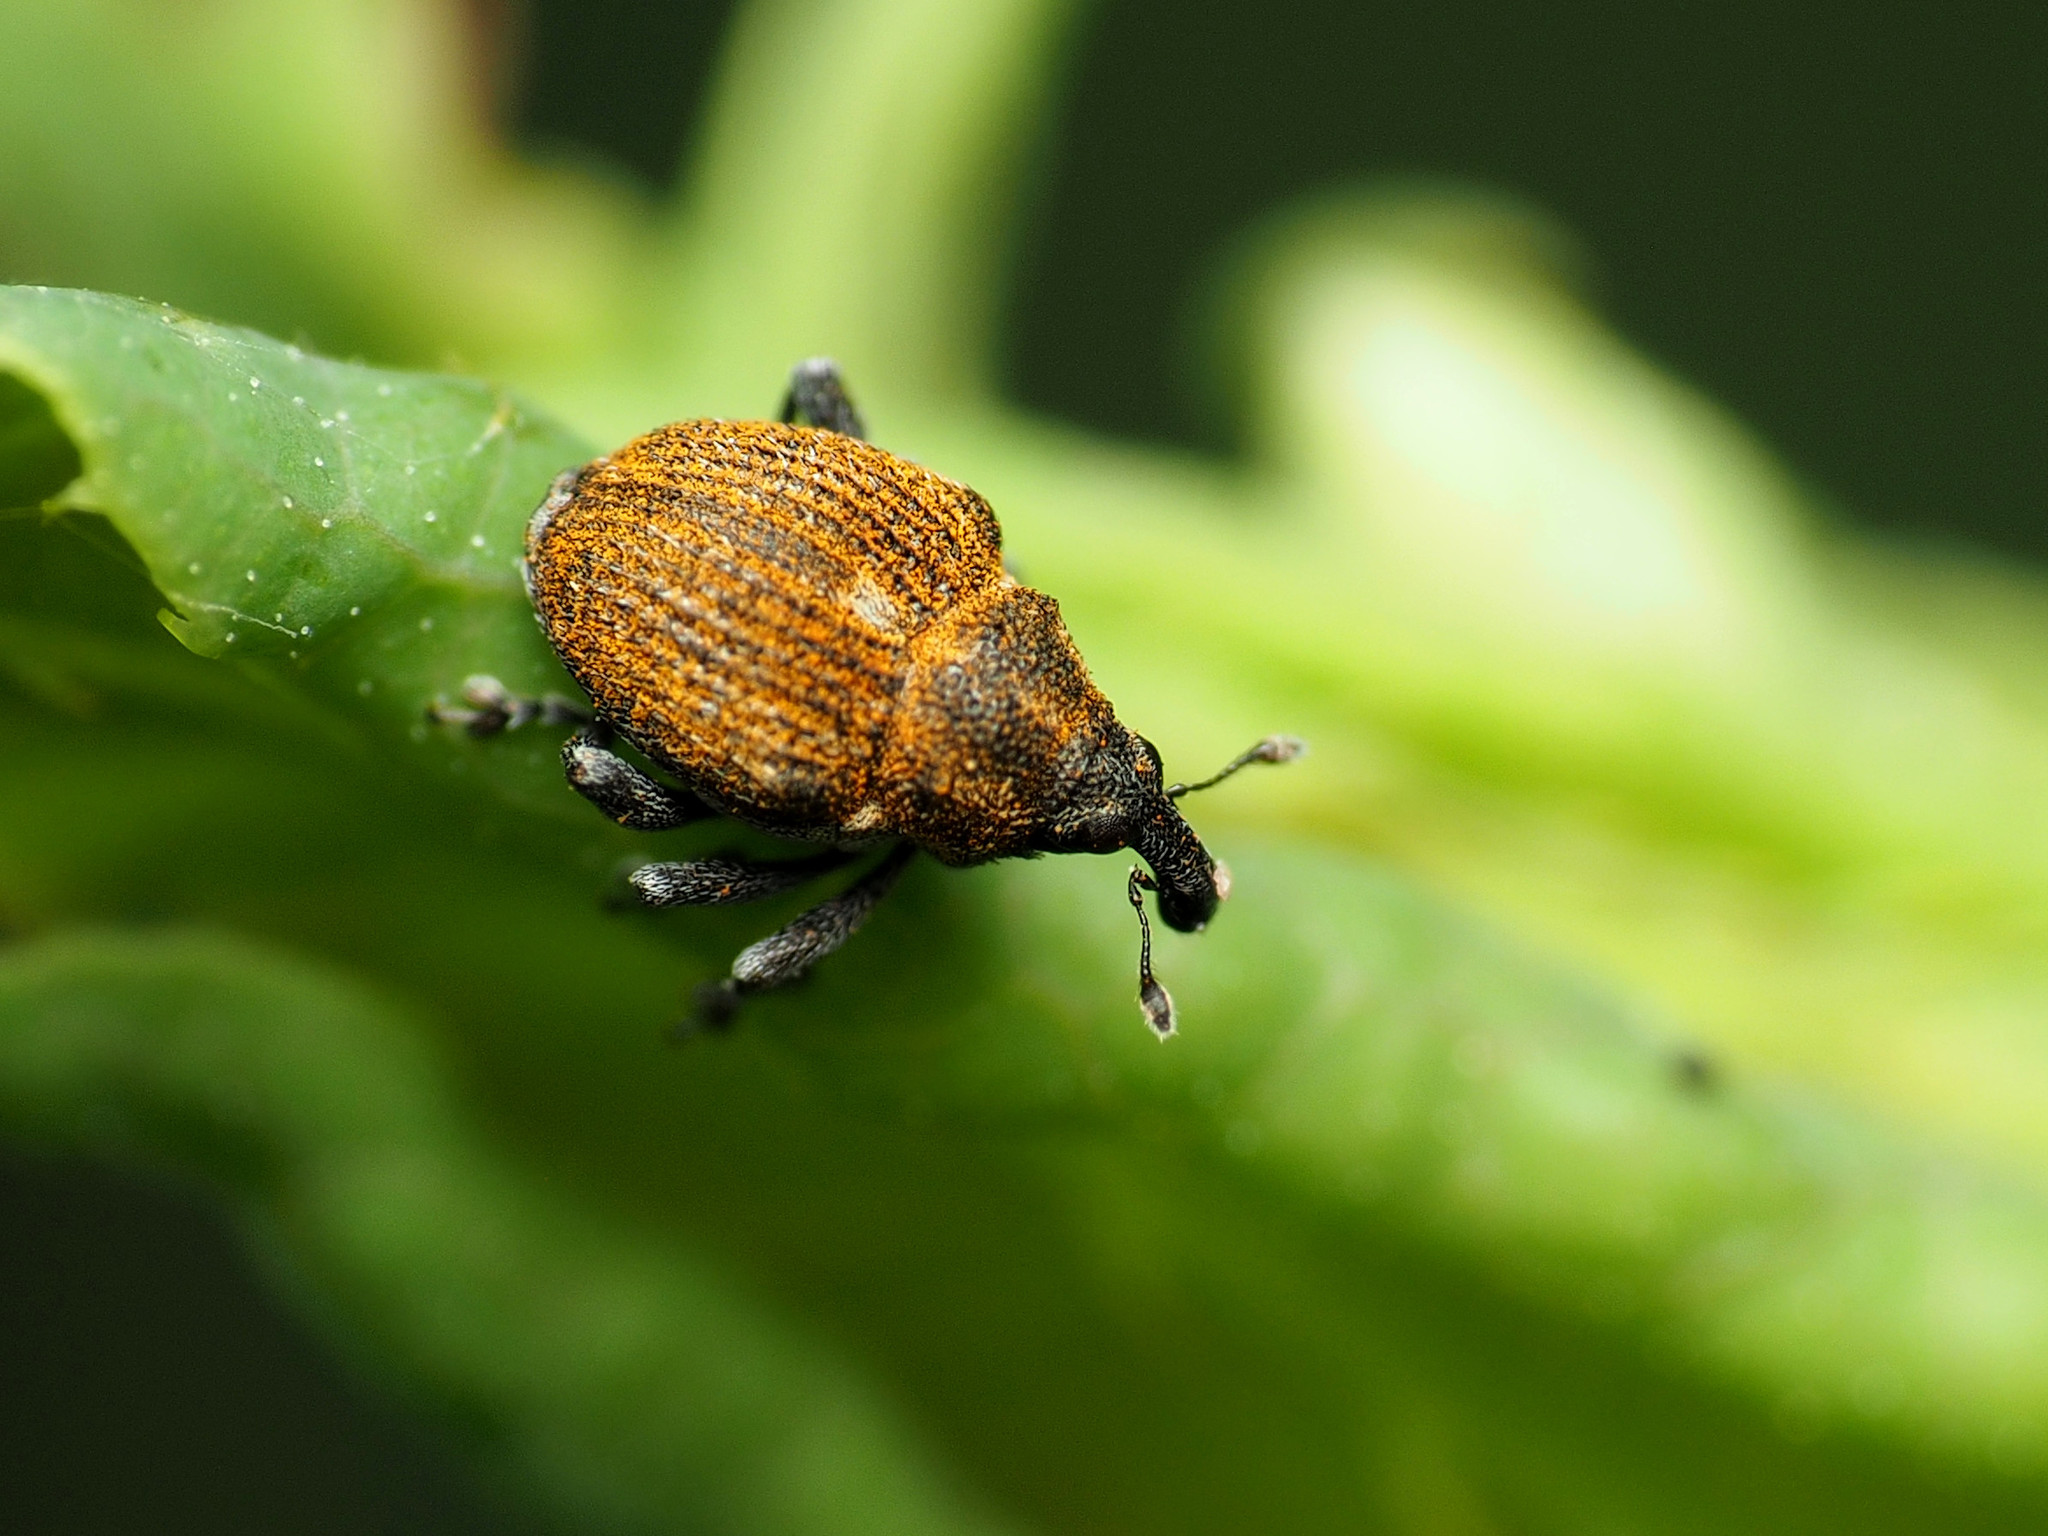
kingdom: Animalia
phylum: Arthropoda
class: Insecta
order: Coleoptera
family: Curculionidae
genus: Rhinoncomimus
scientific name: Rhinoncomimus latipes
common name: Chinese weevil
